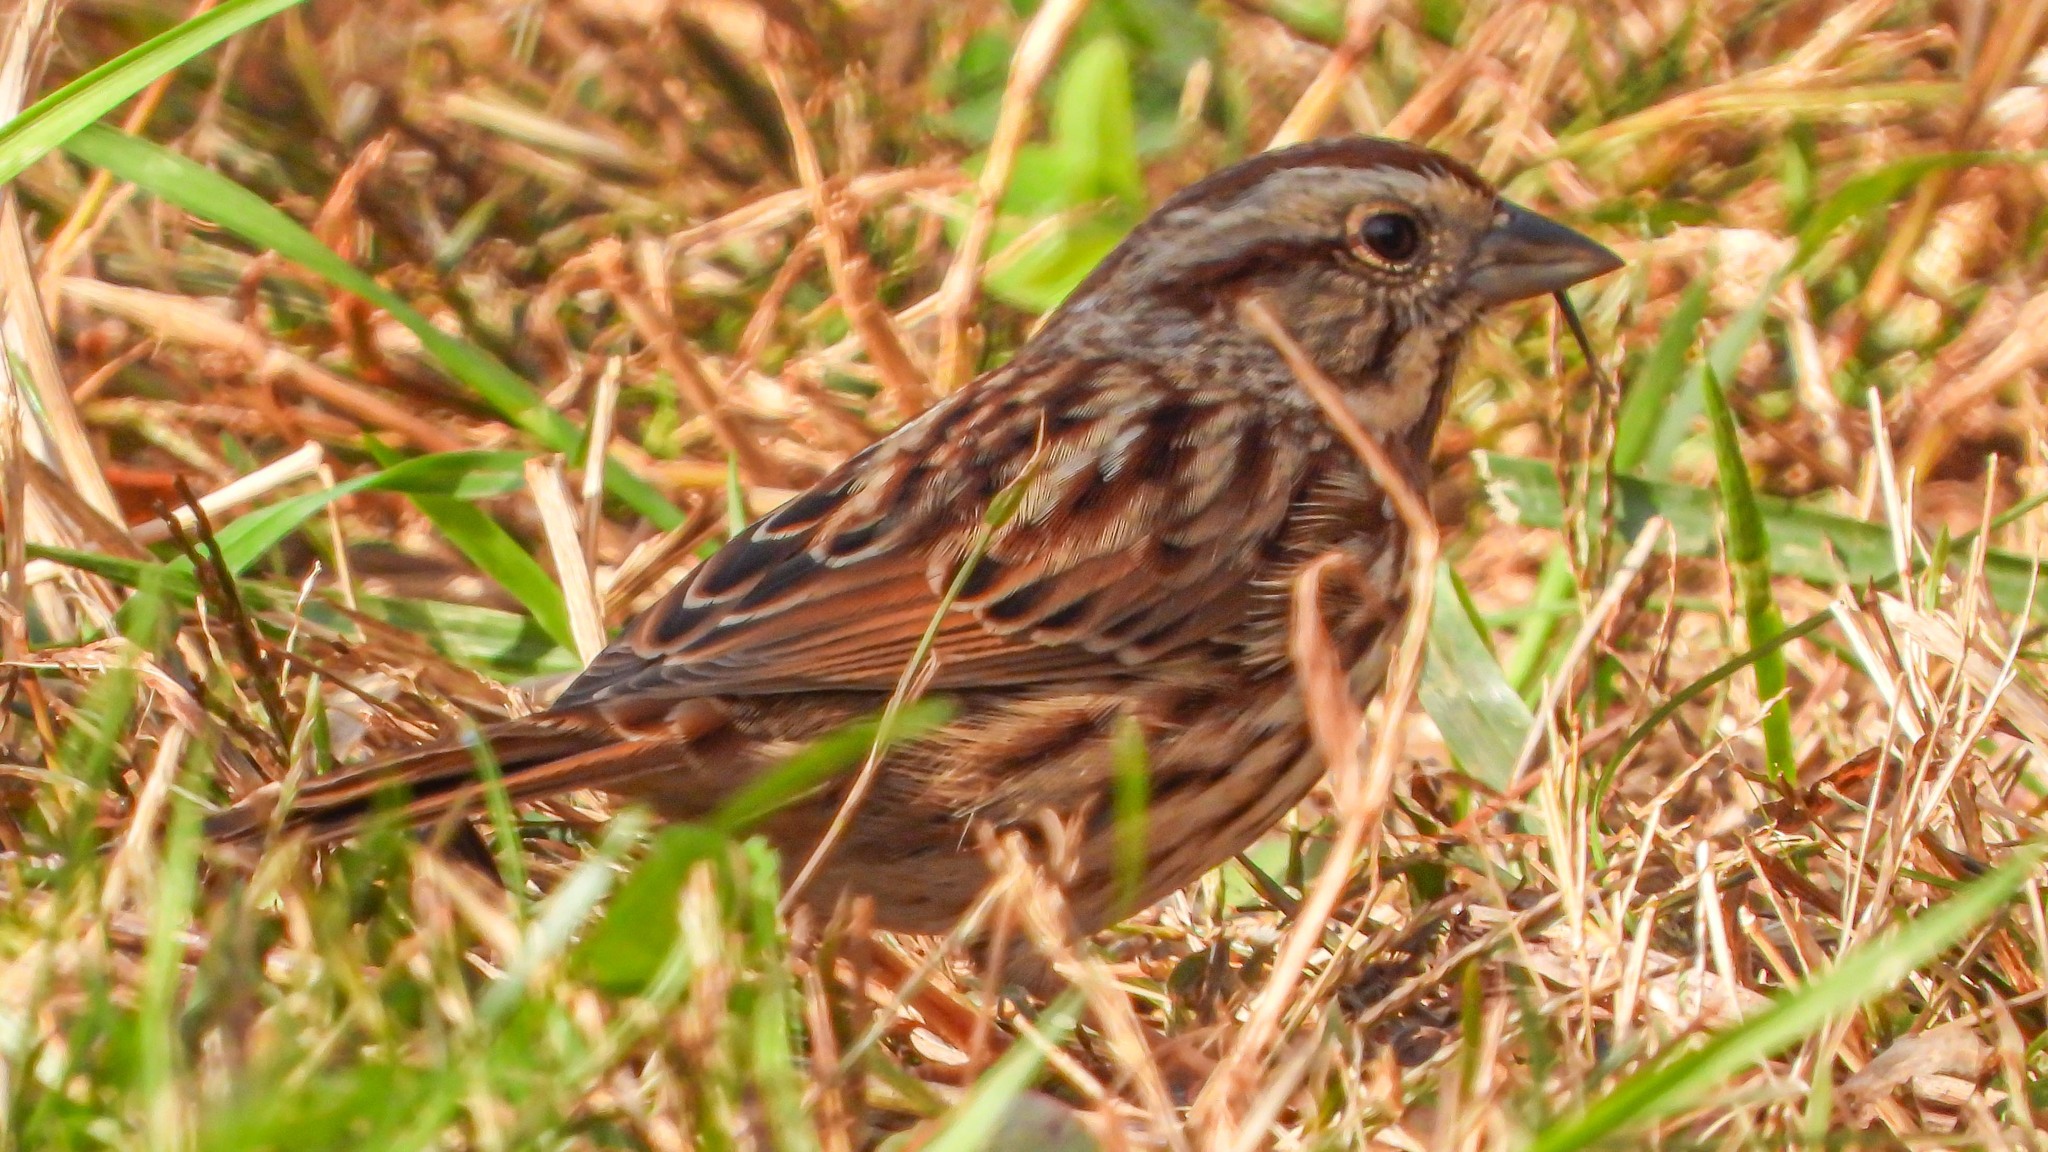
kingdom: Animalia
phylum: Chordata
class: Aves
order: Passeriformes
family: Passerellidae
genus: Melospiza
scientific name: Melospiza melodia
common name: Song sparrow
